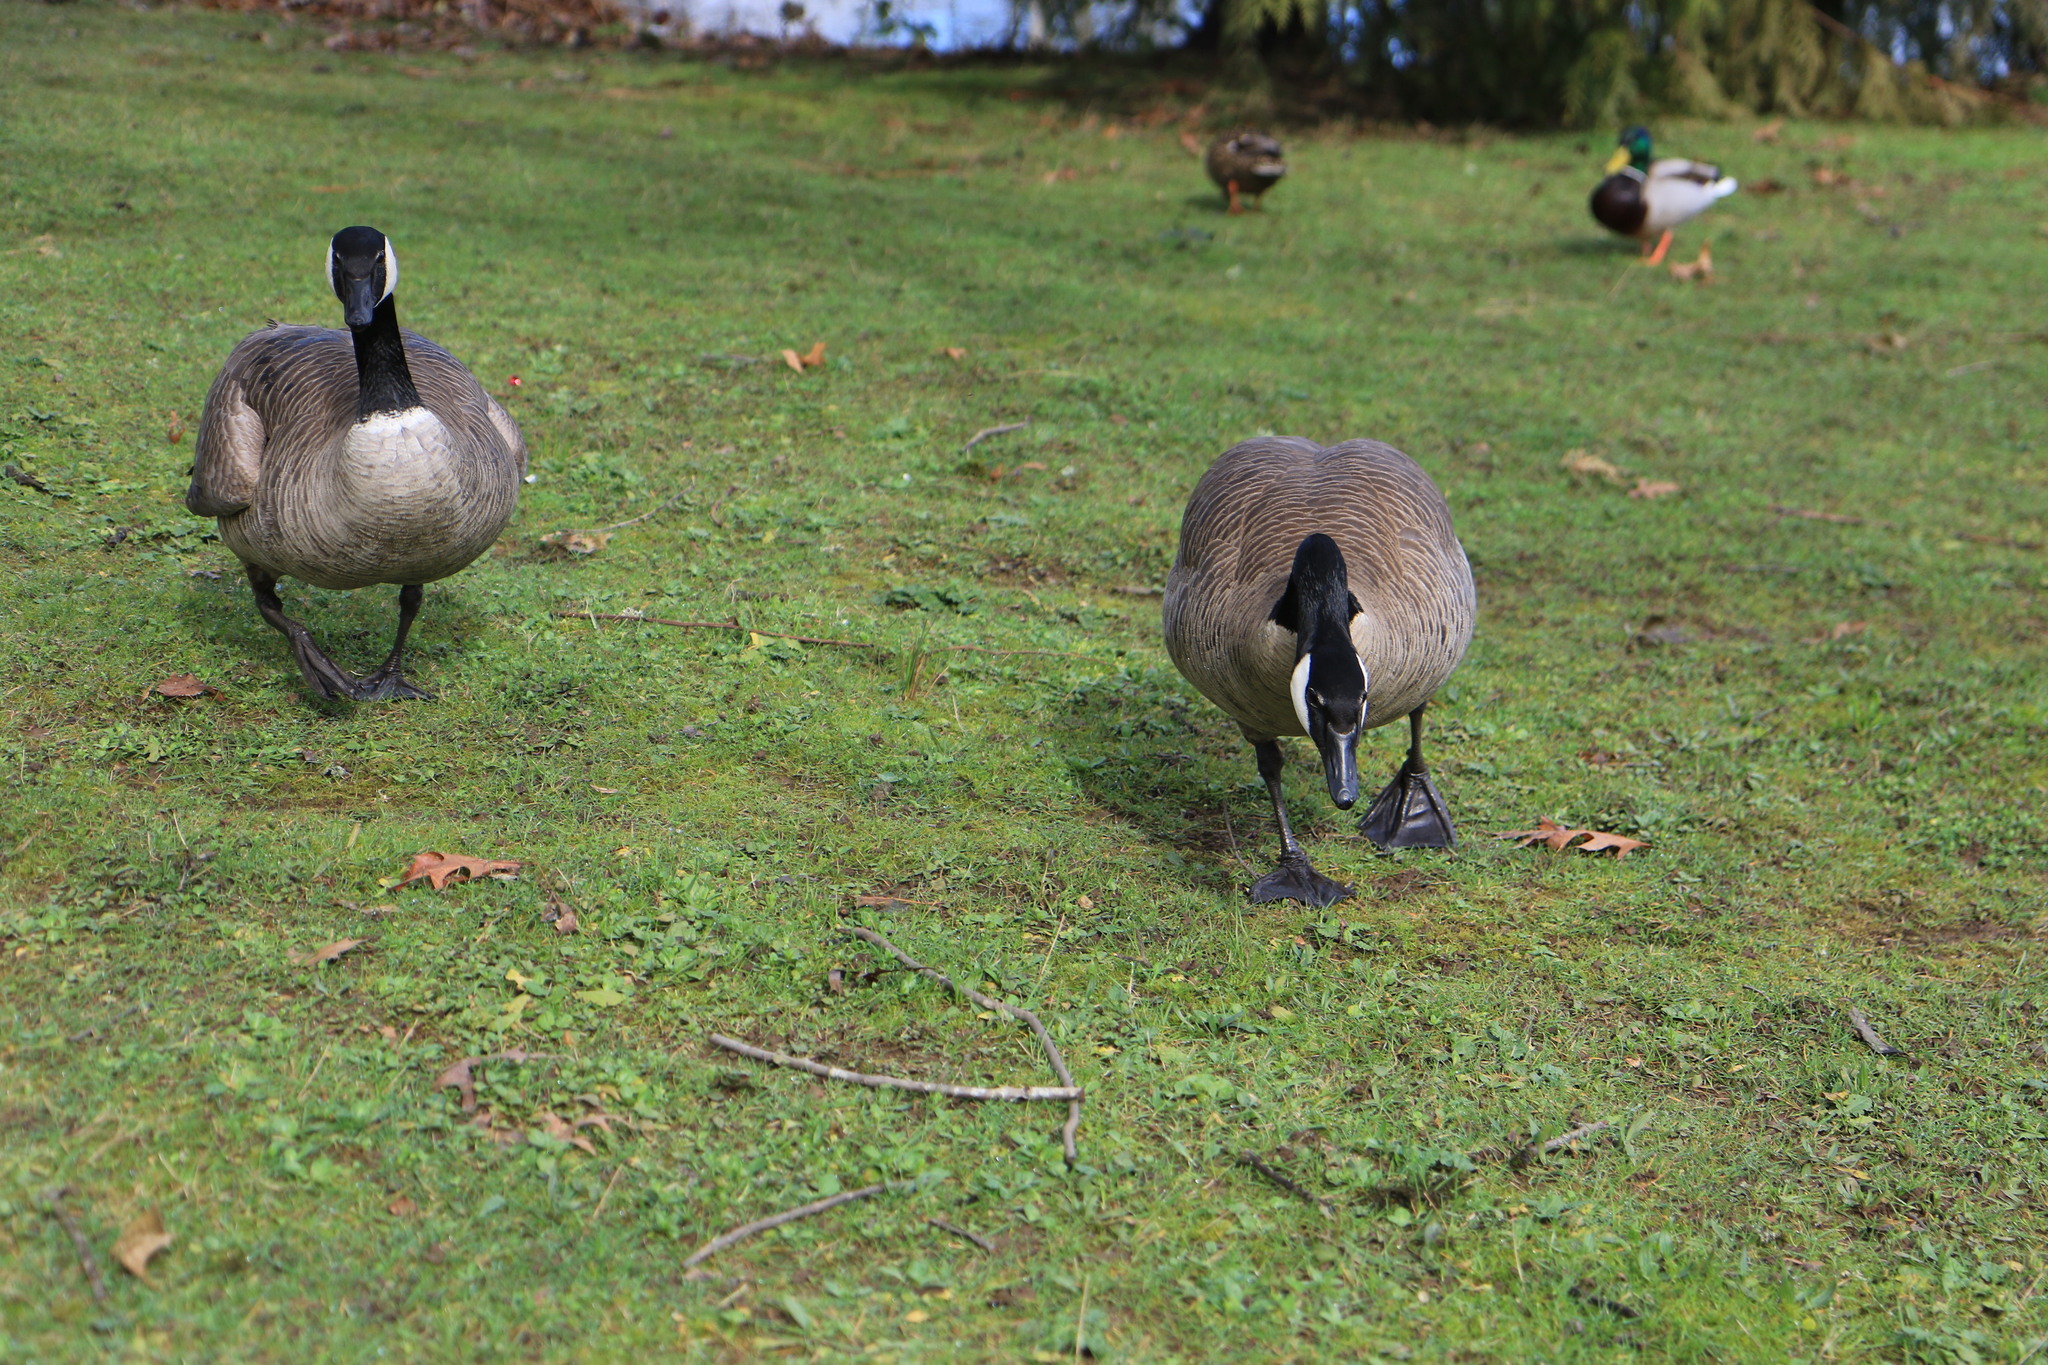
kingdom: Animalia
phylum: Chordata
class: Aves
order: Anseriformes
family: Anatidae
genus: Branta
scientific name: Branta canadensis
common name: Canada goose
